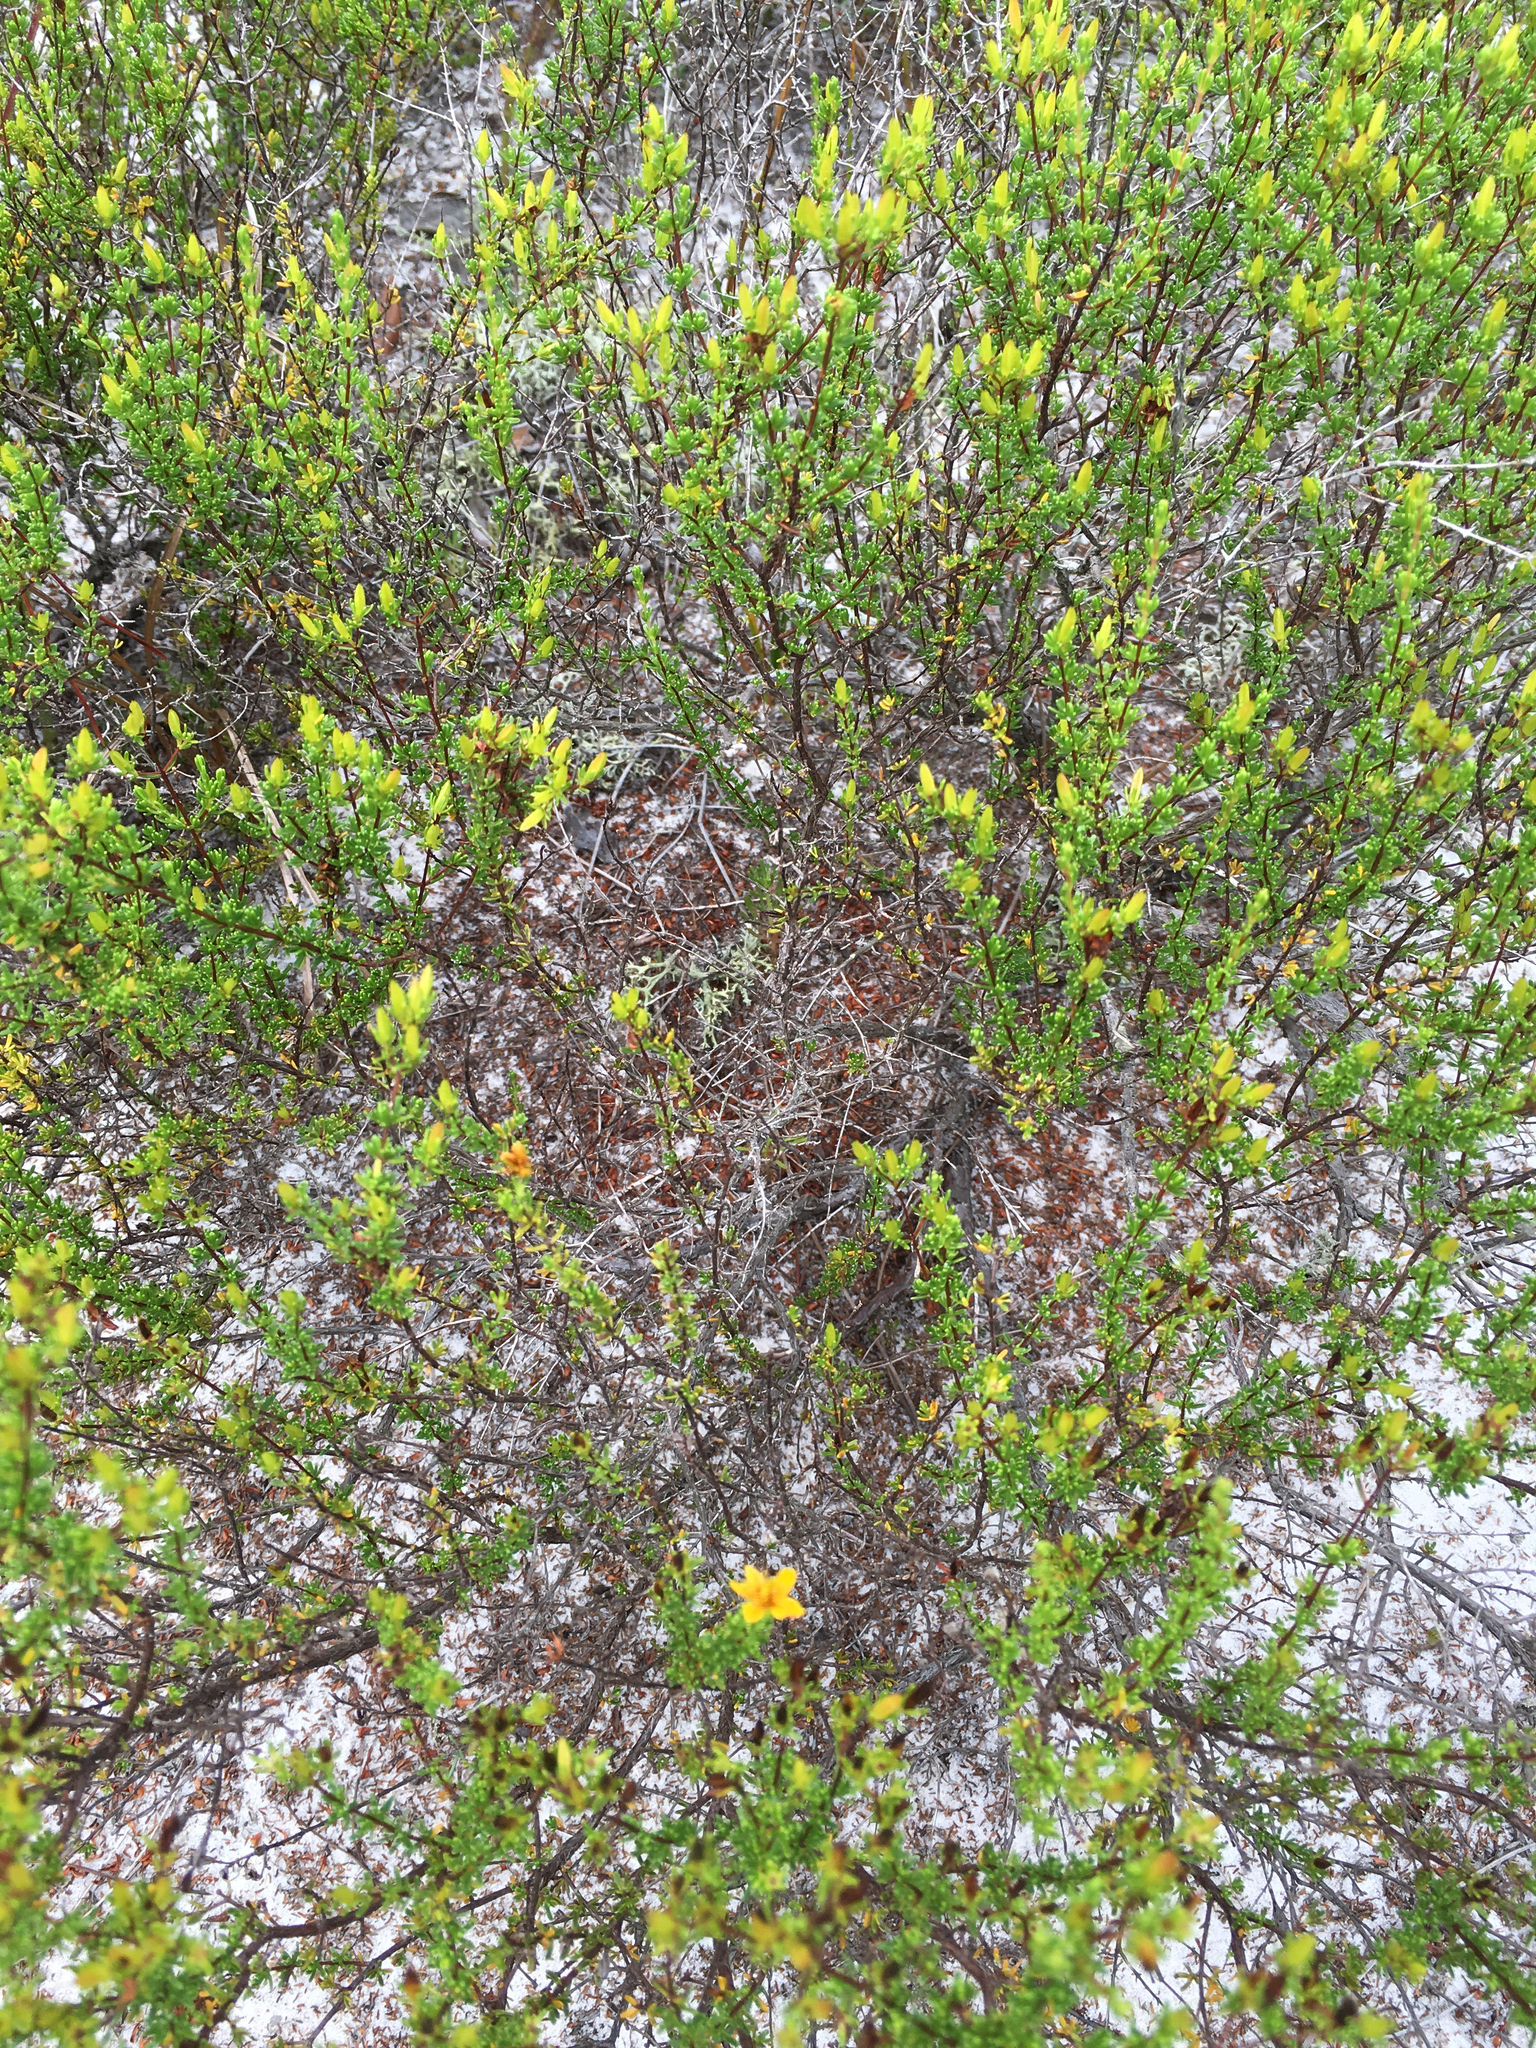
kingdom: Plantae
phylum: Tracheophyta
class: Magnoliopsida
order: Malpighiales
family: Hypericaceae
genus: Hypericum
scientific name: Hypericum tenuifolium
